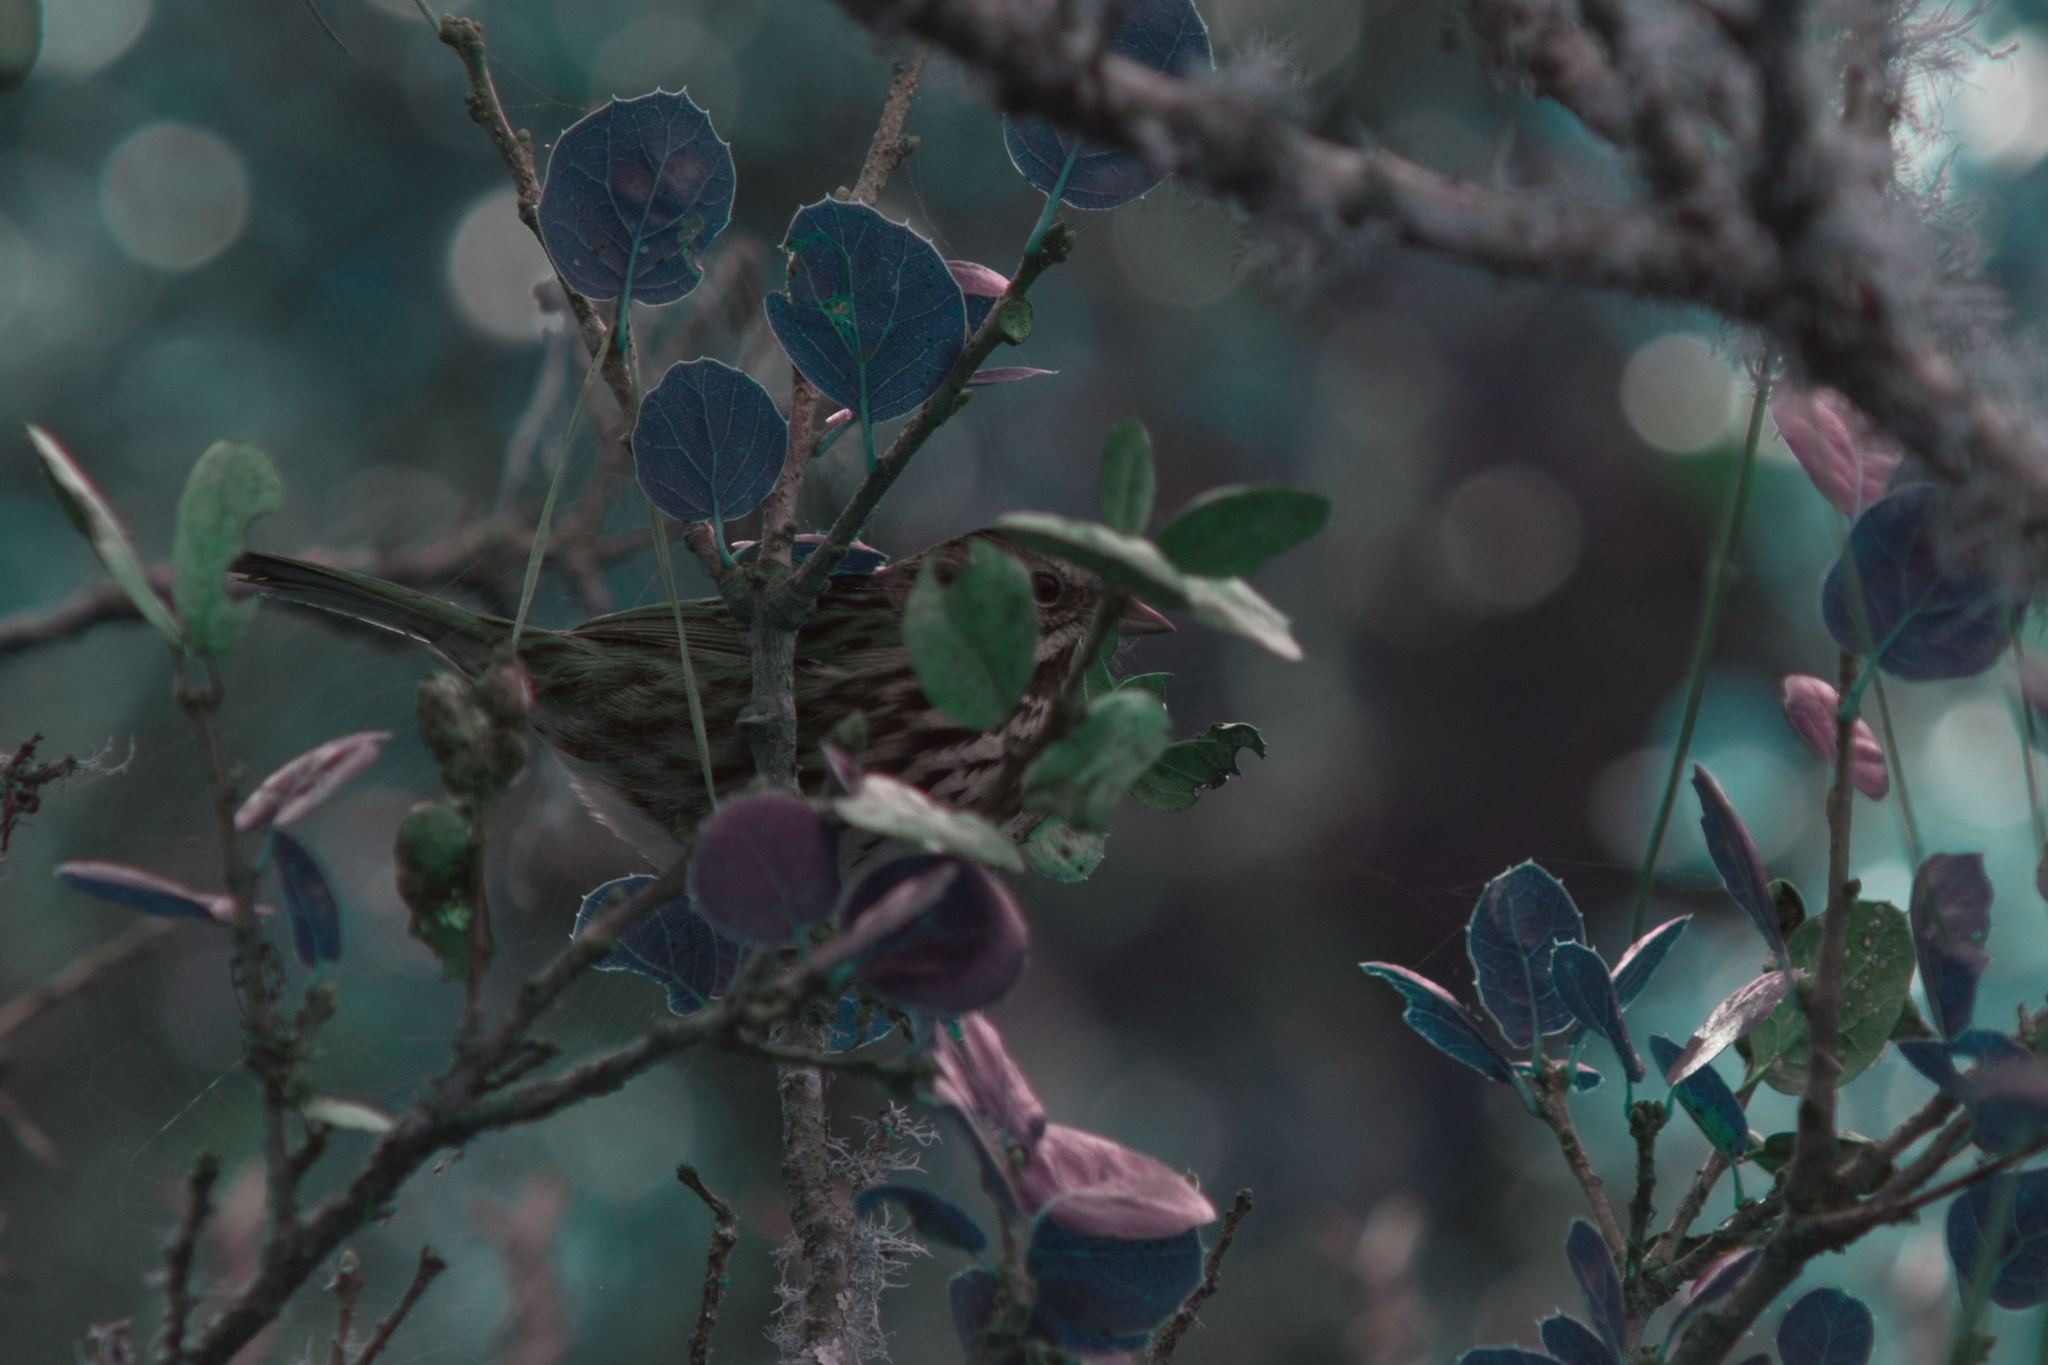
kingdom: Animalia
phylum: Chordata
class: Aves
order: Passeriformes
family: Passerellidae
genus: Melospiza
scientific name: Melospiza melodia
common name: Song sparrow
